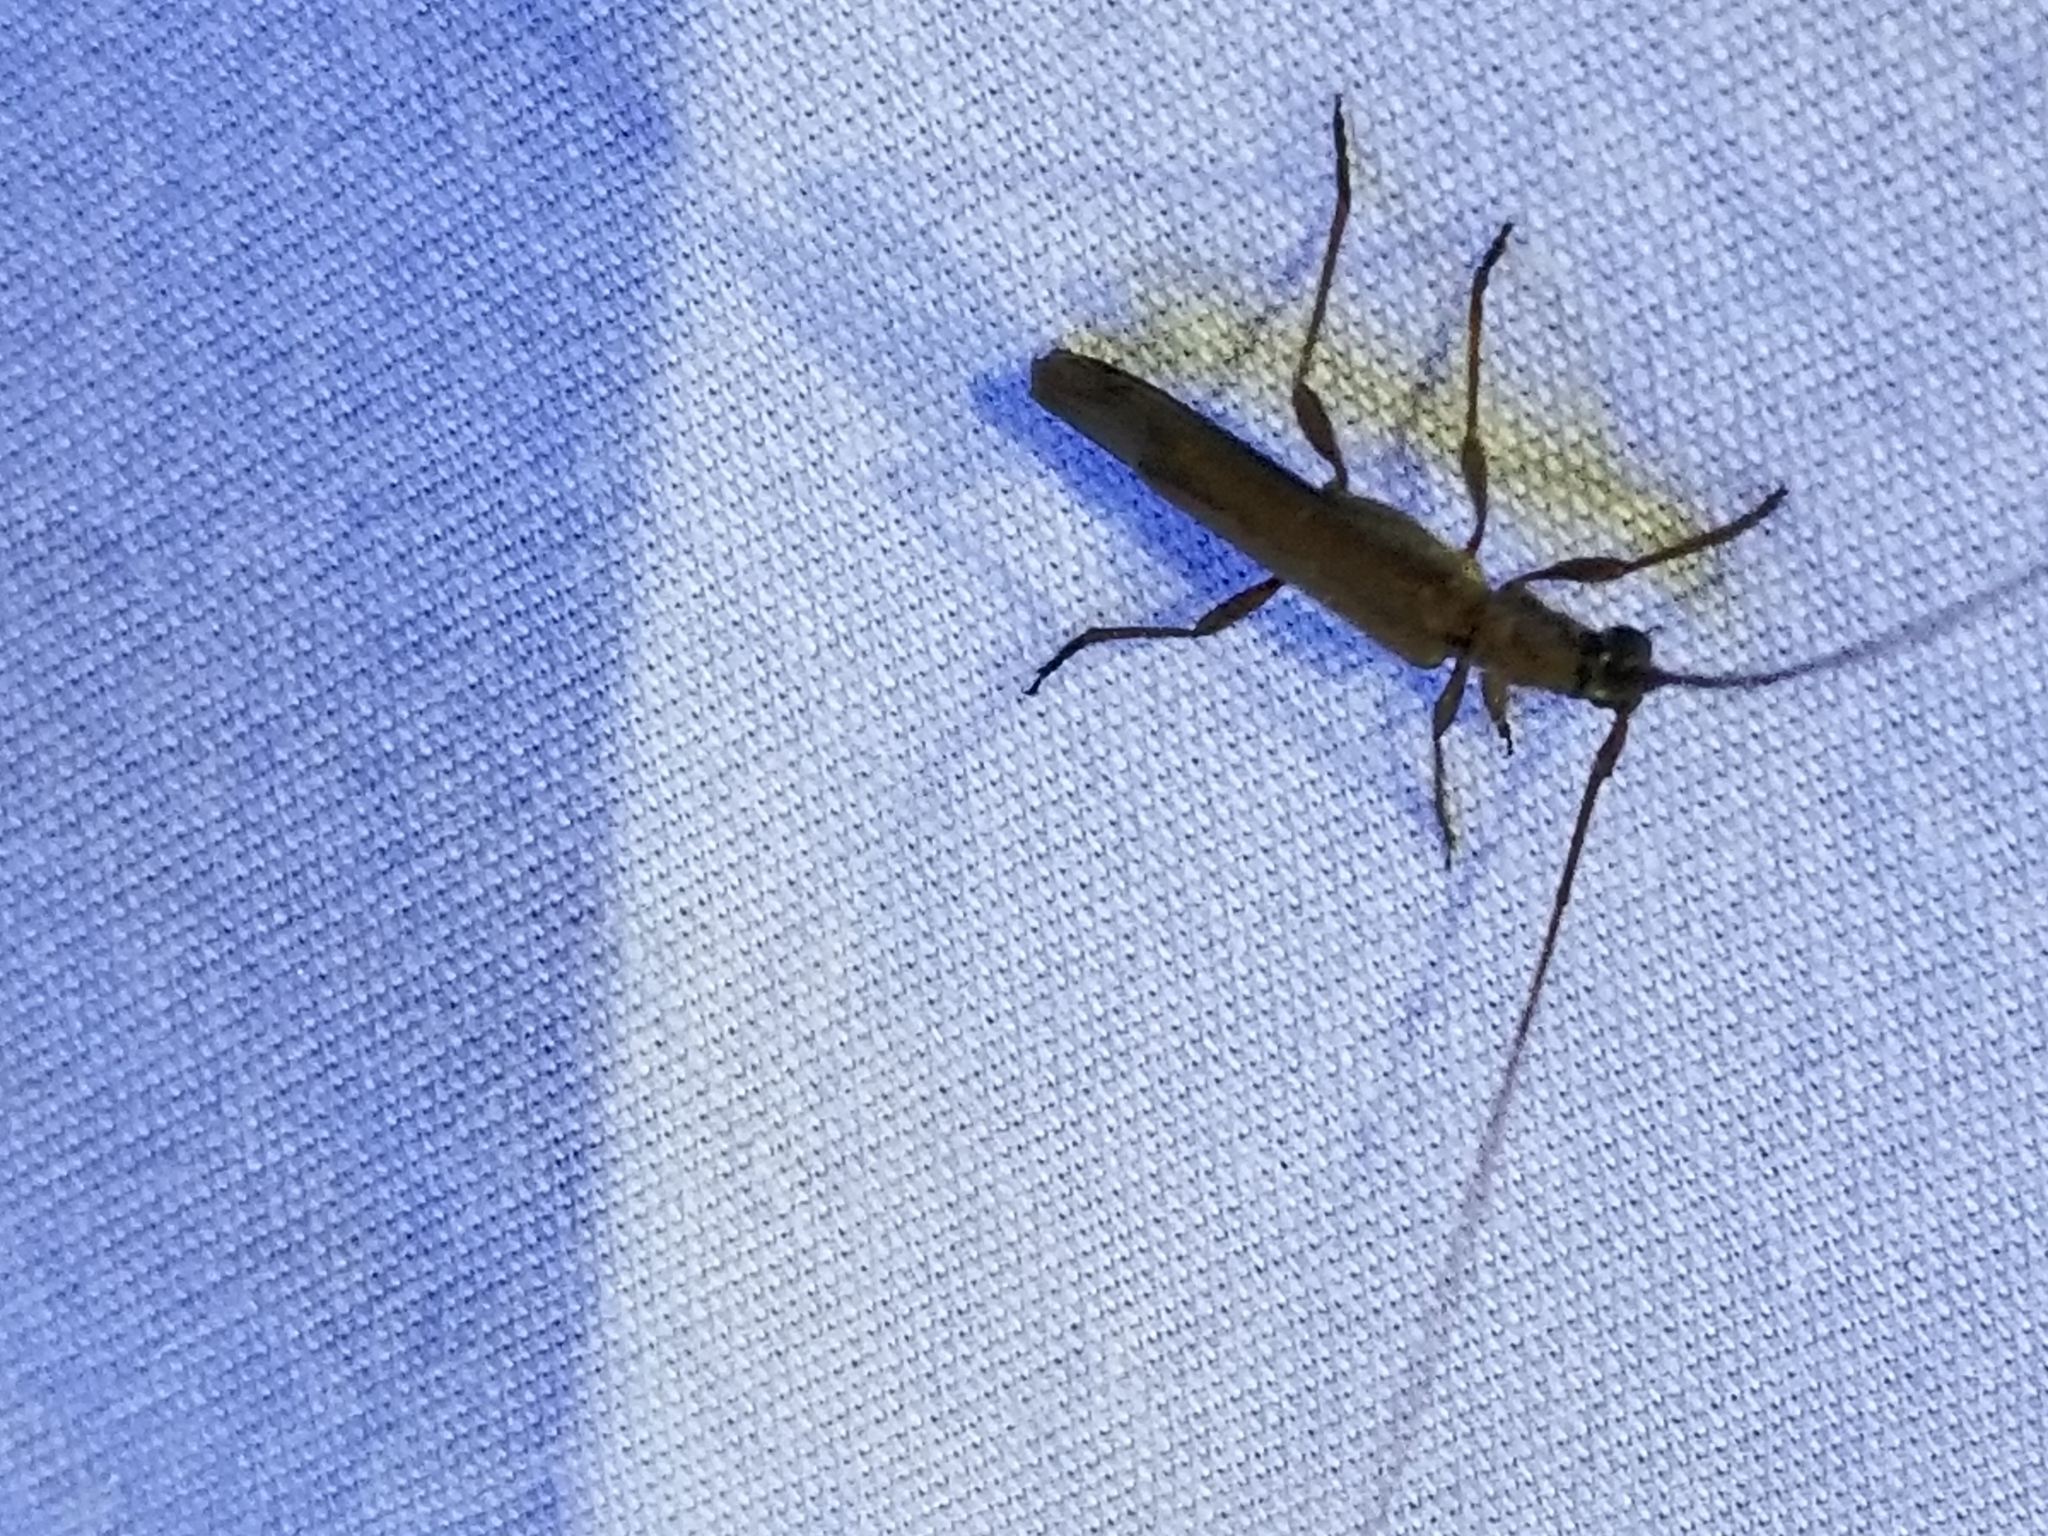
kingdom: Animalia
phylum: Arthropoda
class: Insecta
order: Coleoptera
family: Cerambycidae
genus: Styloxus
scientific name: Styloxus fulleri
